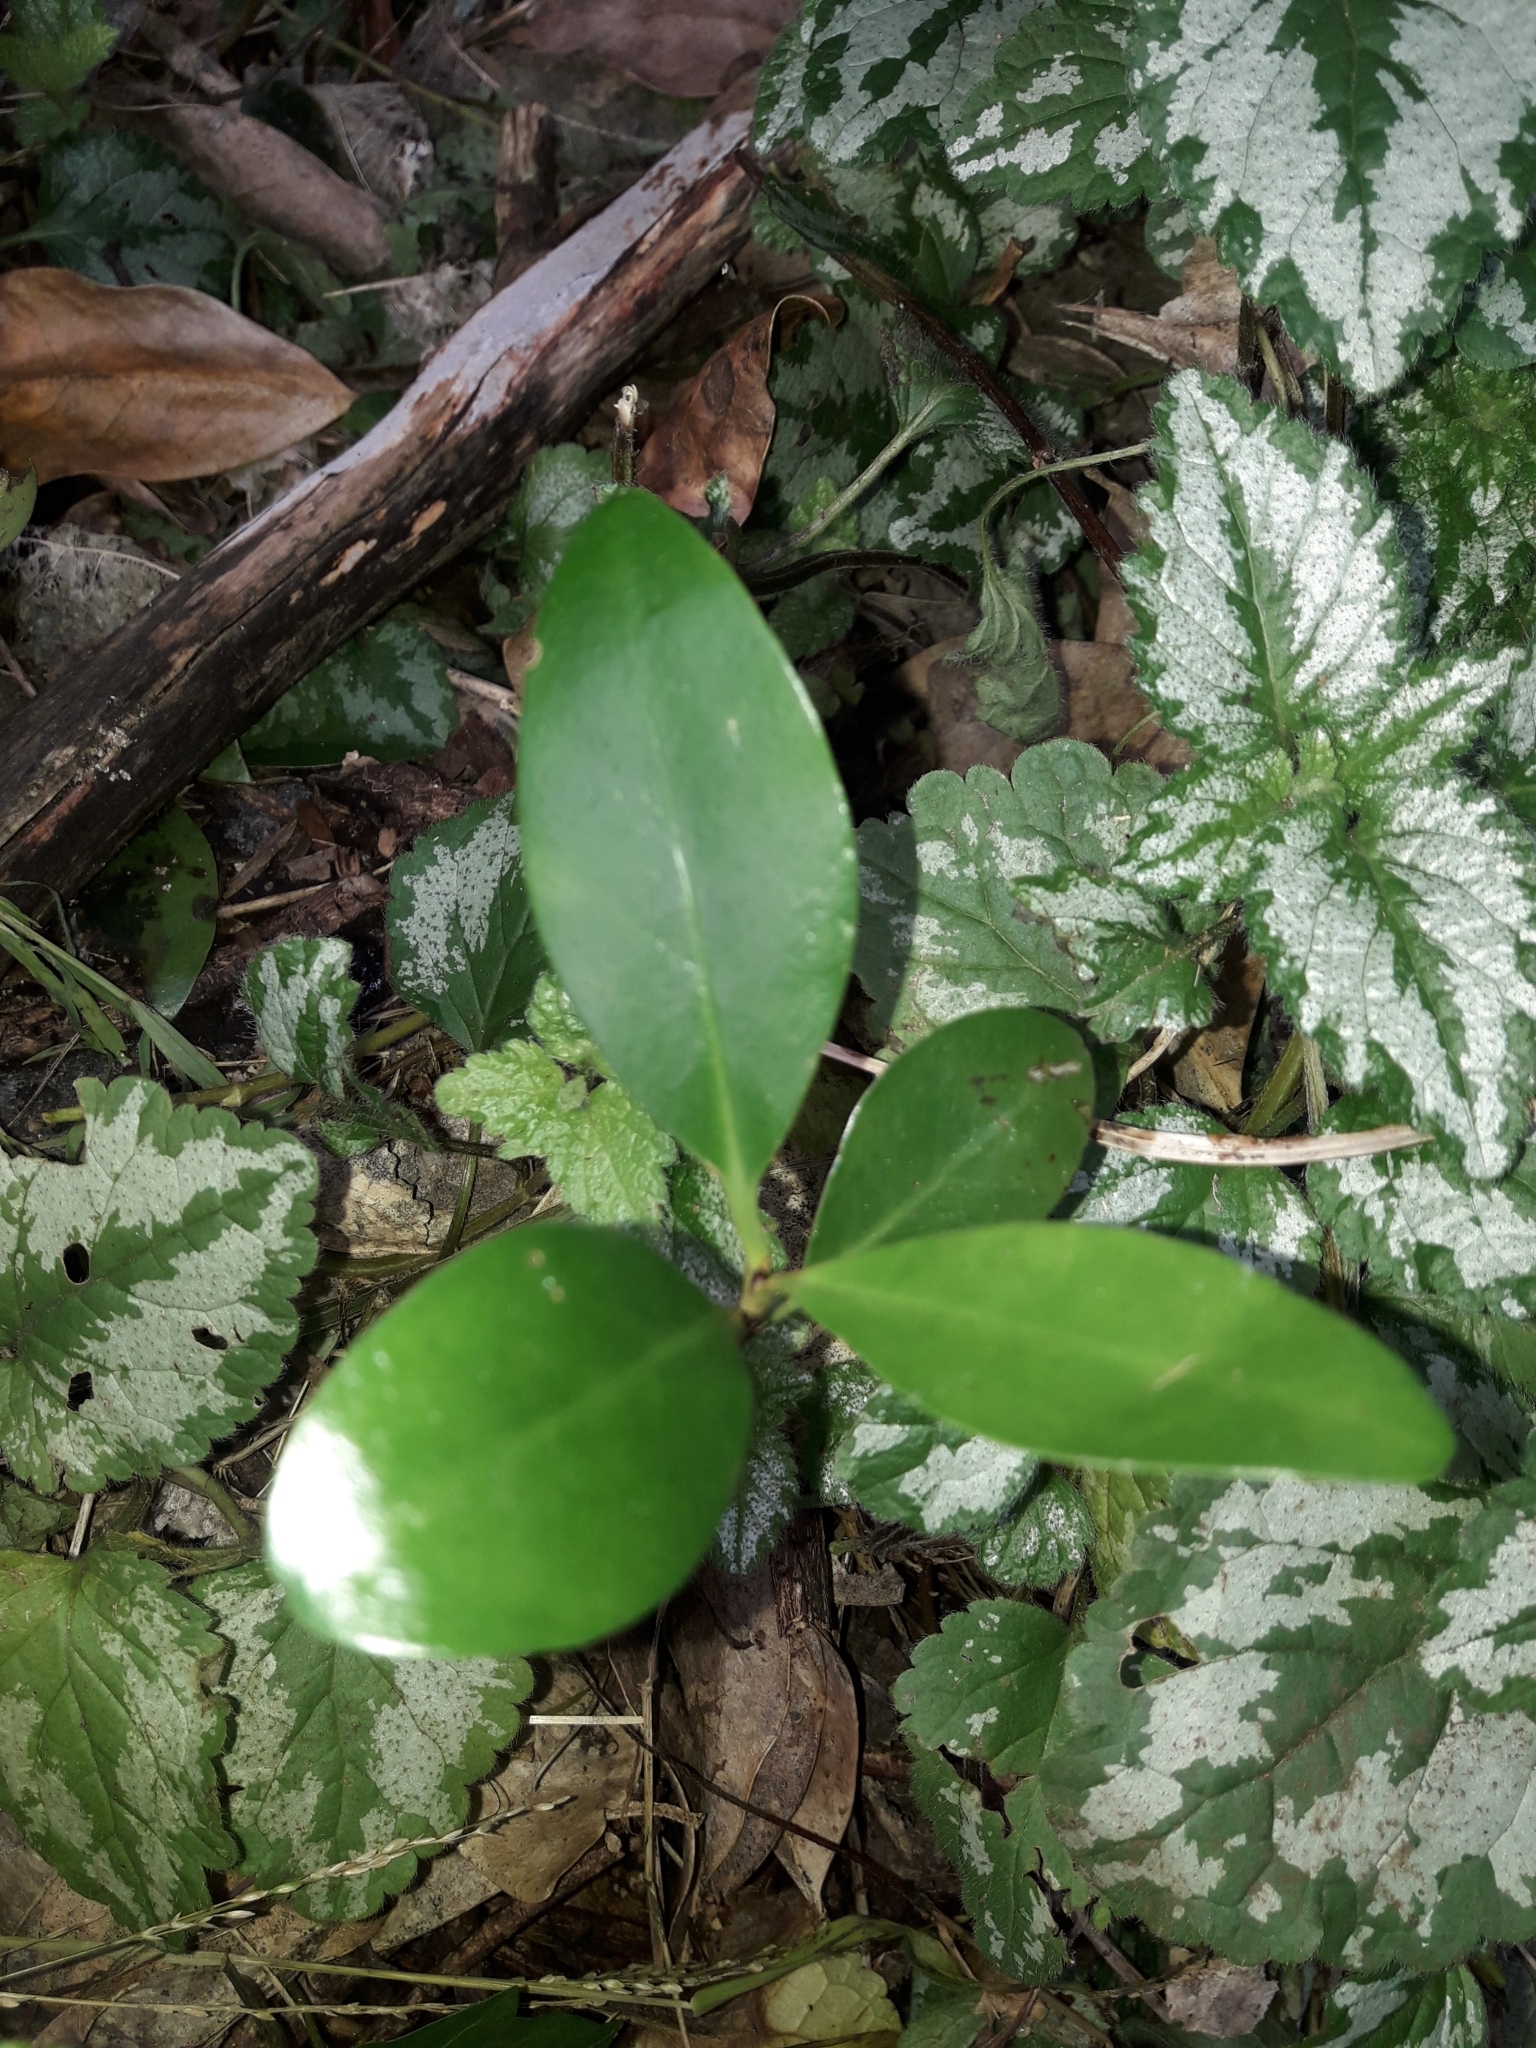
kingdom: Plantae
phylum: Tracheophyta
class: Magnoliopsida
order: Cucurbitales
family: Corynocarpaceae
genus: Corynocarpus
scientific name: Corynocarpus laevigatus
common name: New zealand laurel
